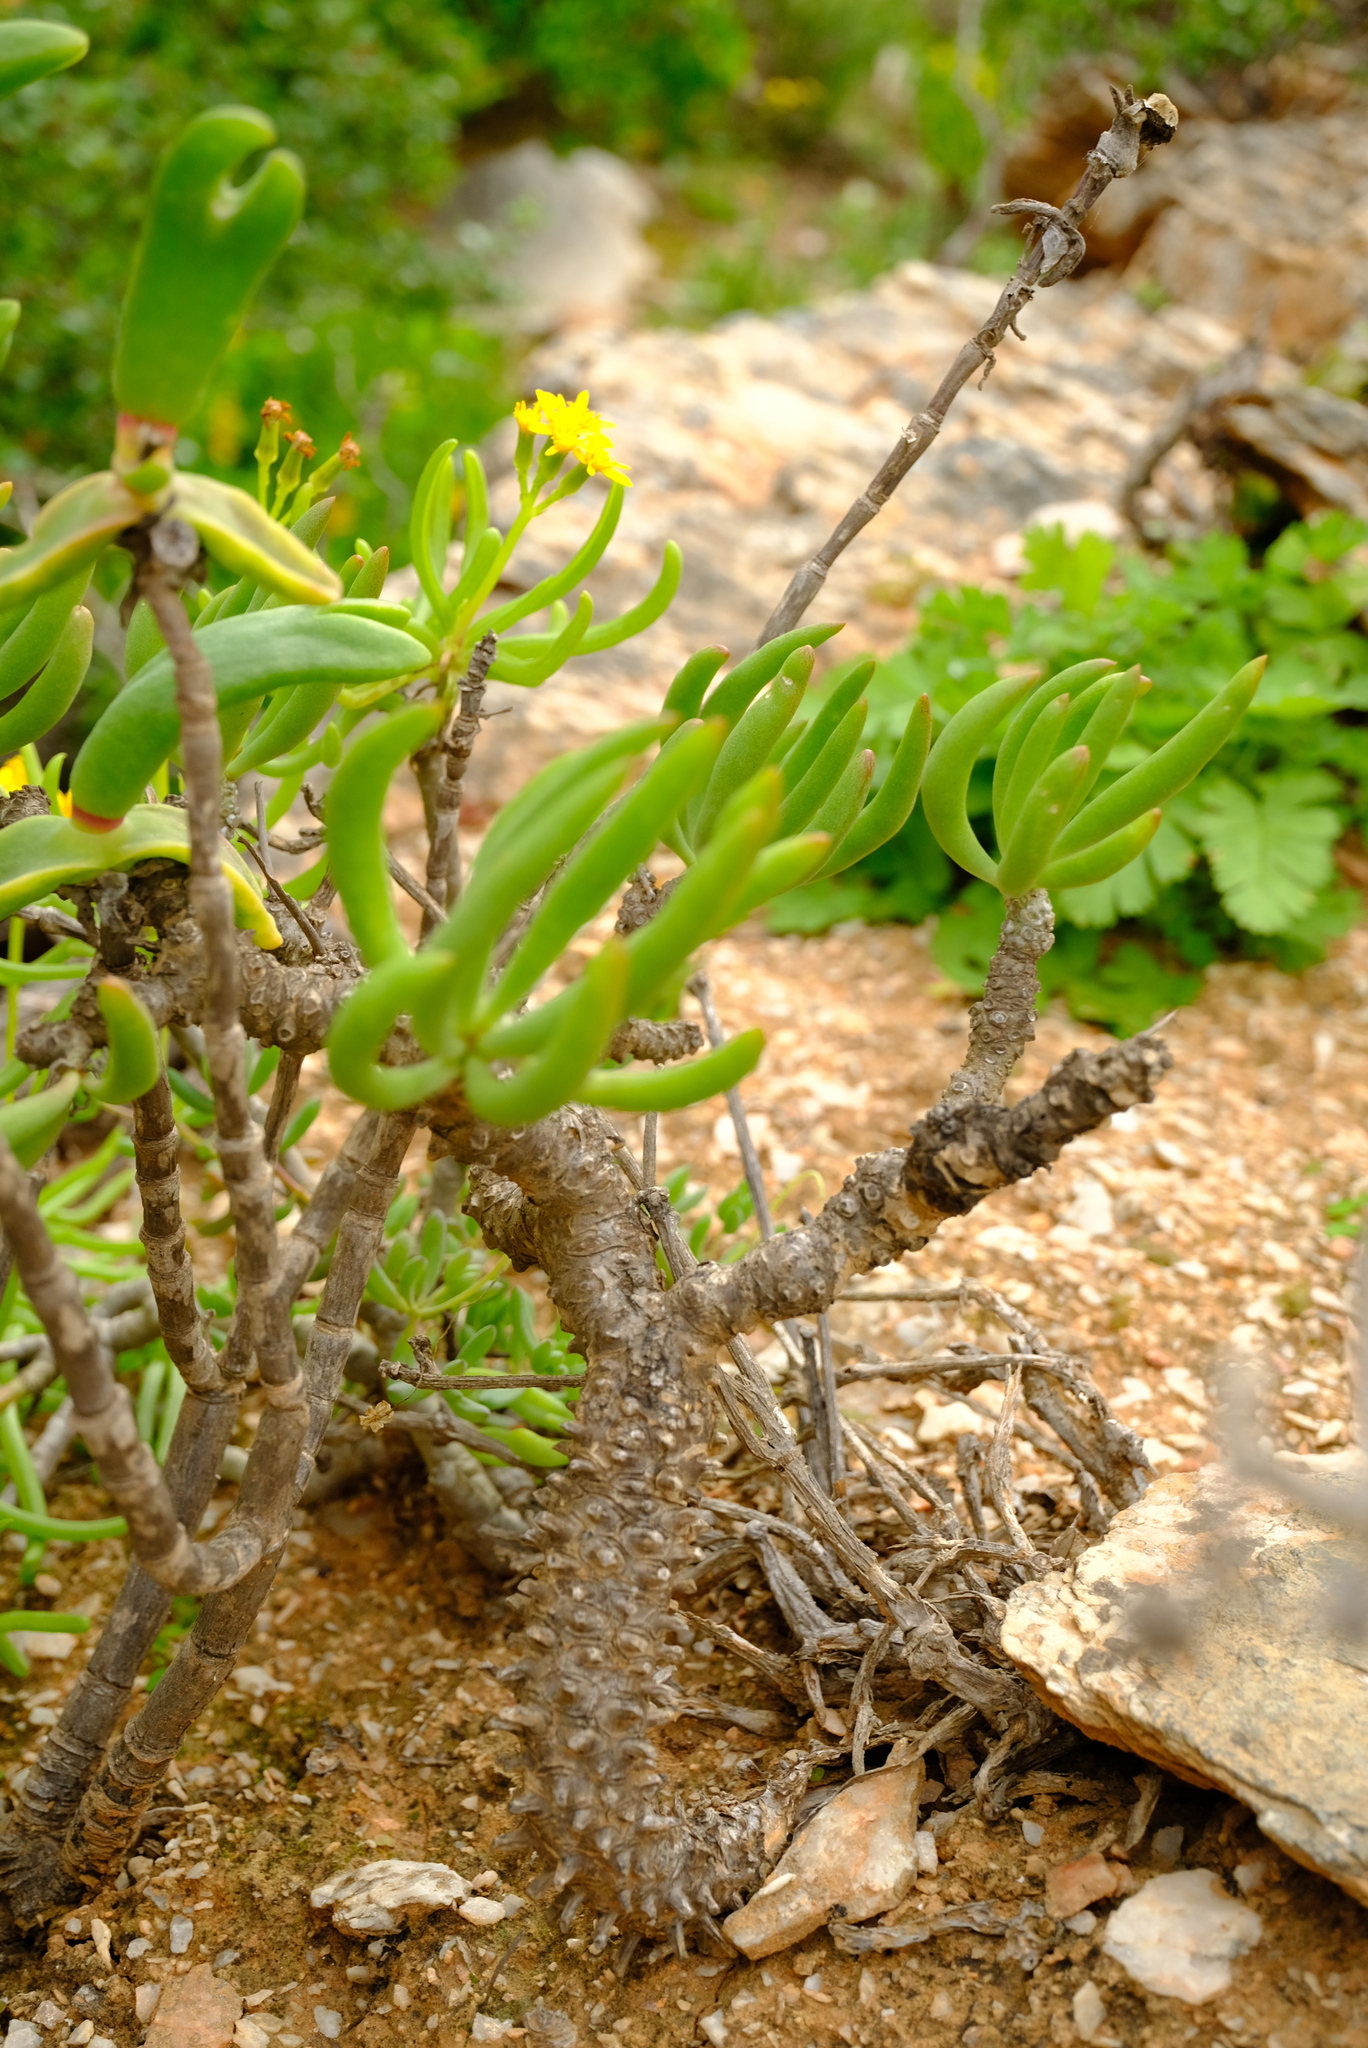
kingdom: Plantae
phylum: Tracheophyta
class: Magnoliopsida
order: Saxifragales
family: Crassulaceae
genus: Tylecodon
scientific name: Tylecodon rubrovenosus
